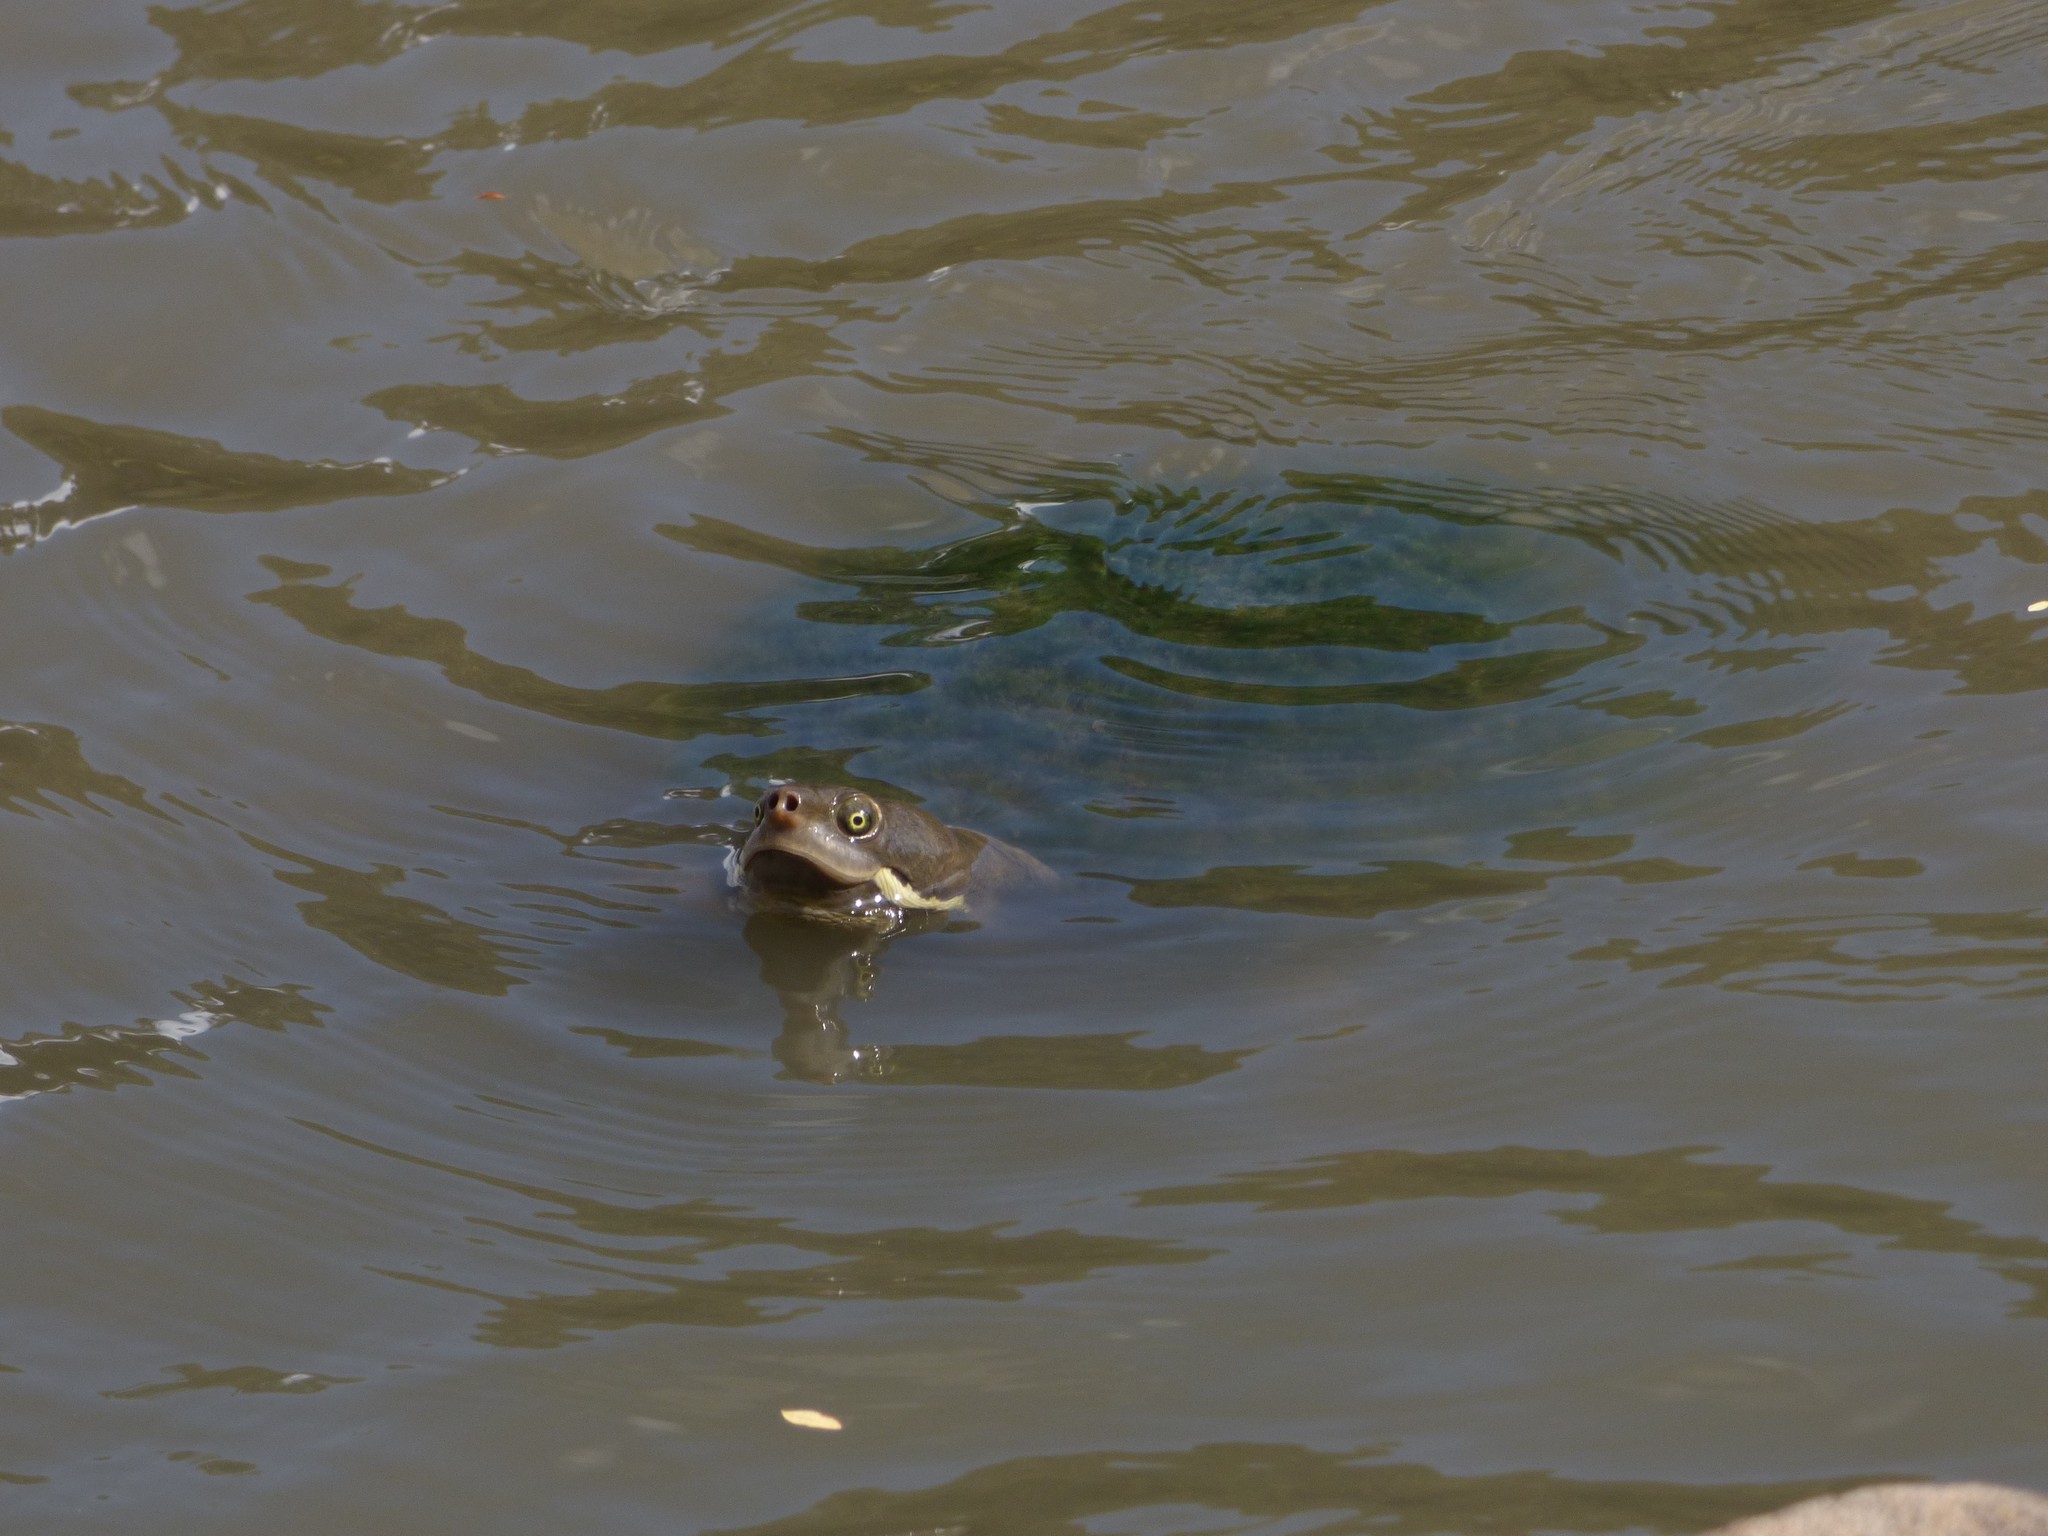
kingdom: Animalia
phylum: Chordata
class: Testudines
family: Chelidae
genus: Emydura
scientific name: Emydura macquarii
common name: Murray river turtle
